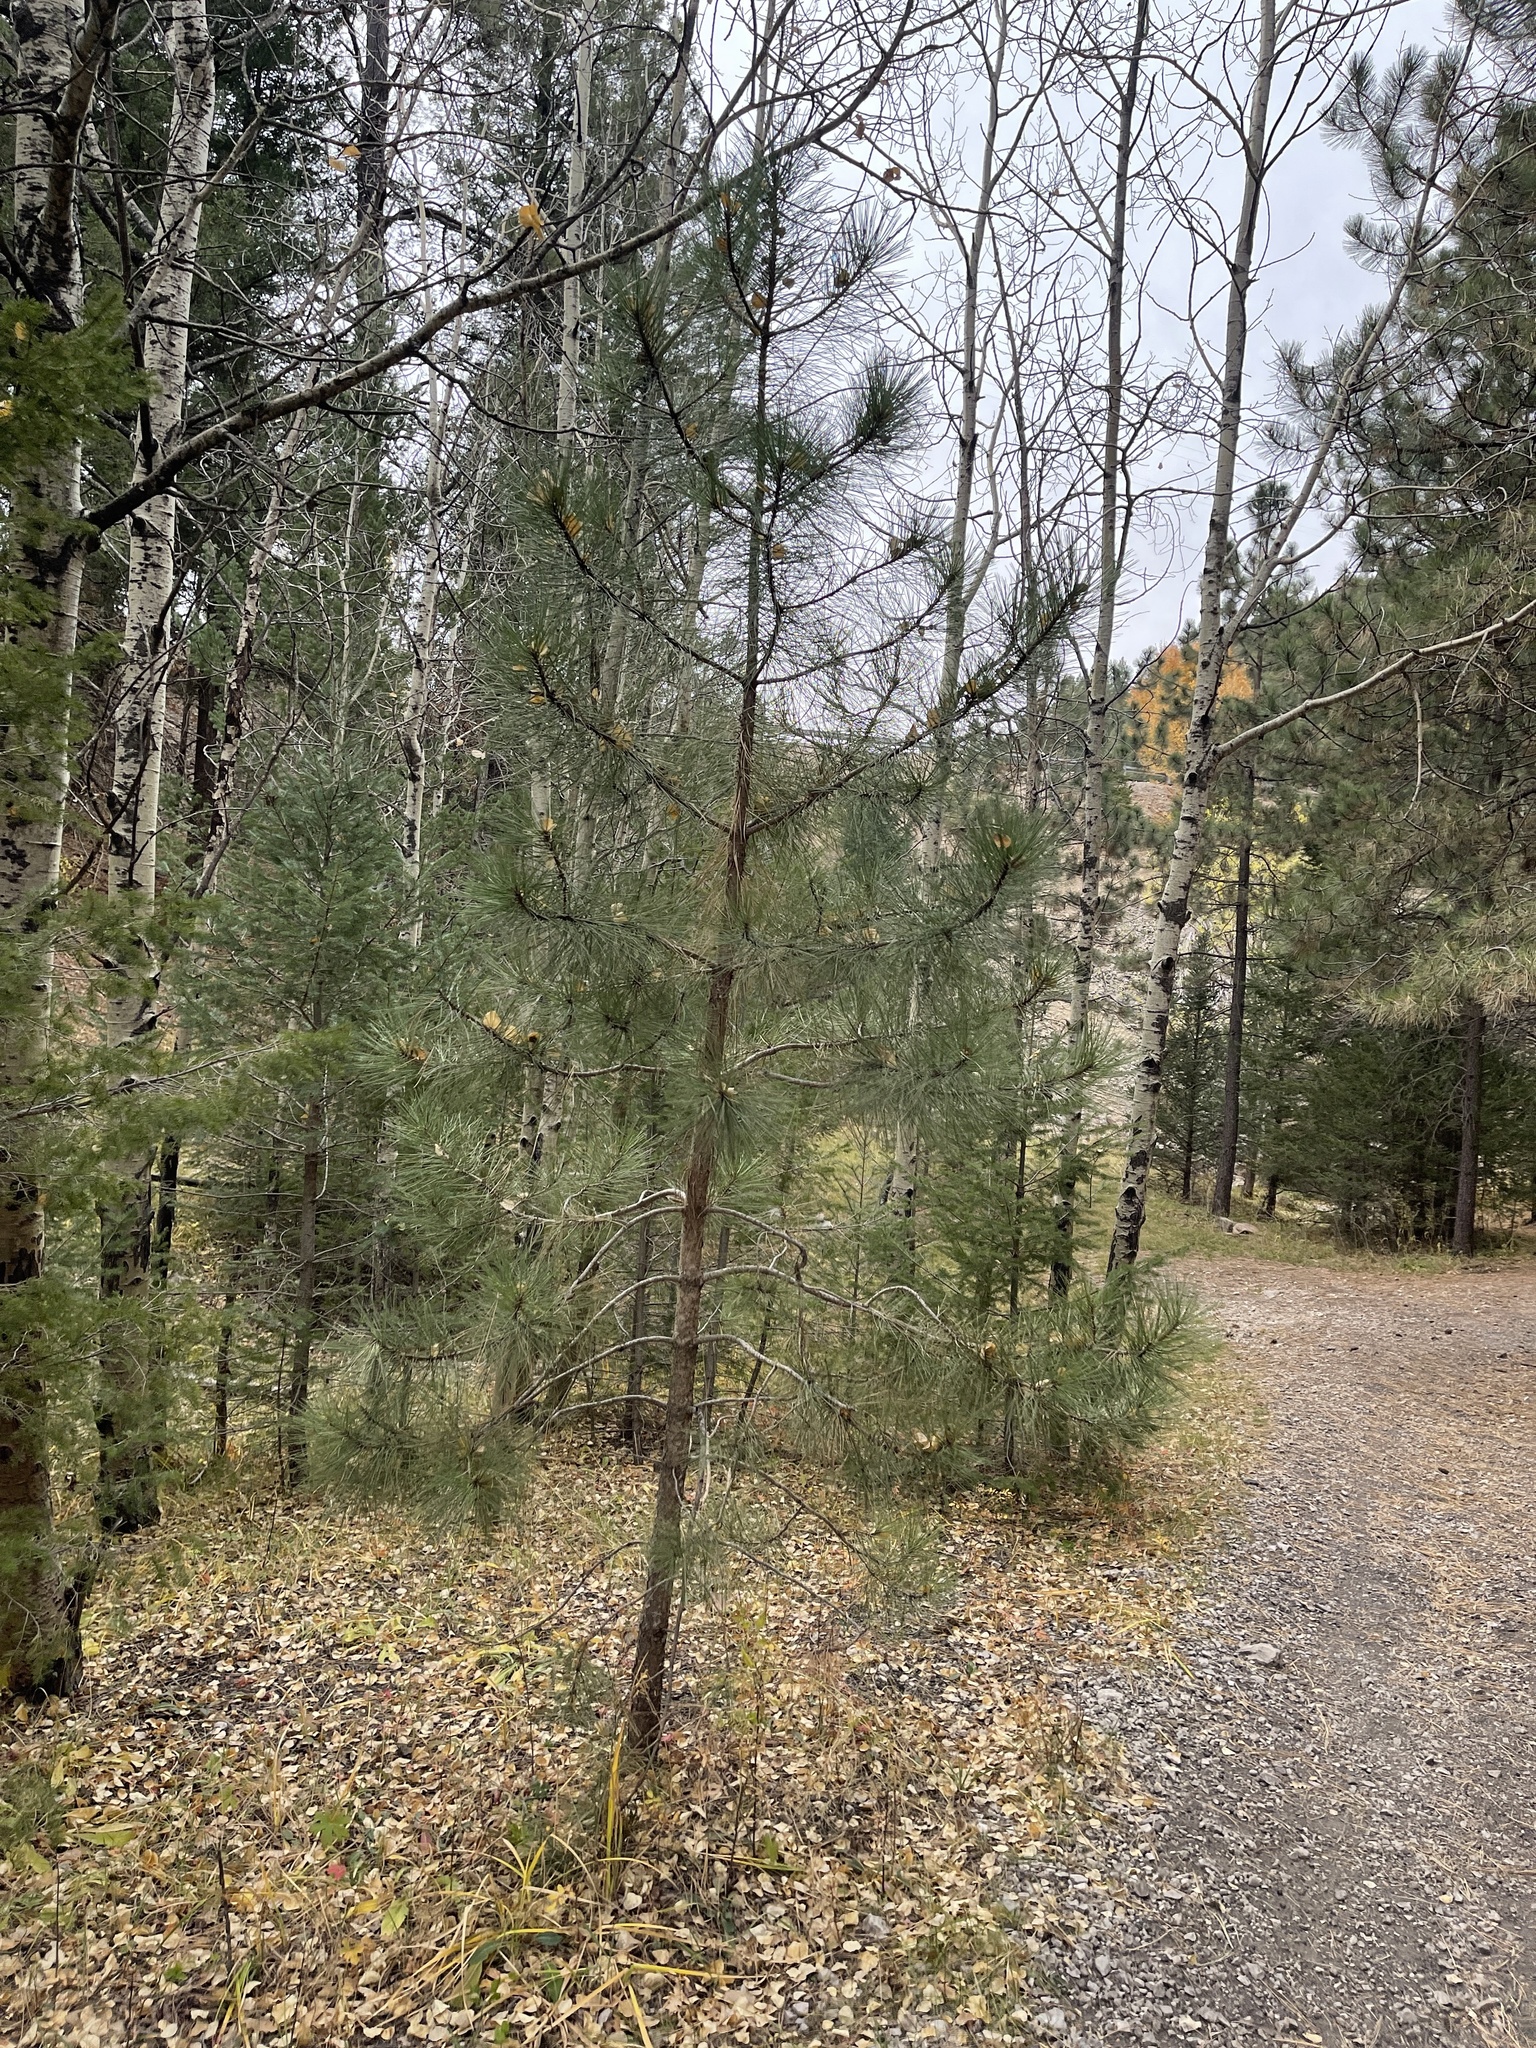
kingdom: Plantae
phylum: Tracheophyta
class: Pinopsida
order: Pinales
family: Pinaceae
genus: Pinus
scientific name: Pinus ponderosa
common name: Western yellow-pine
